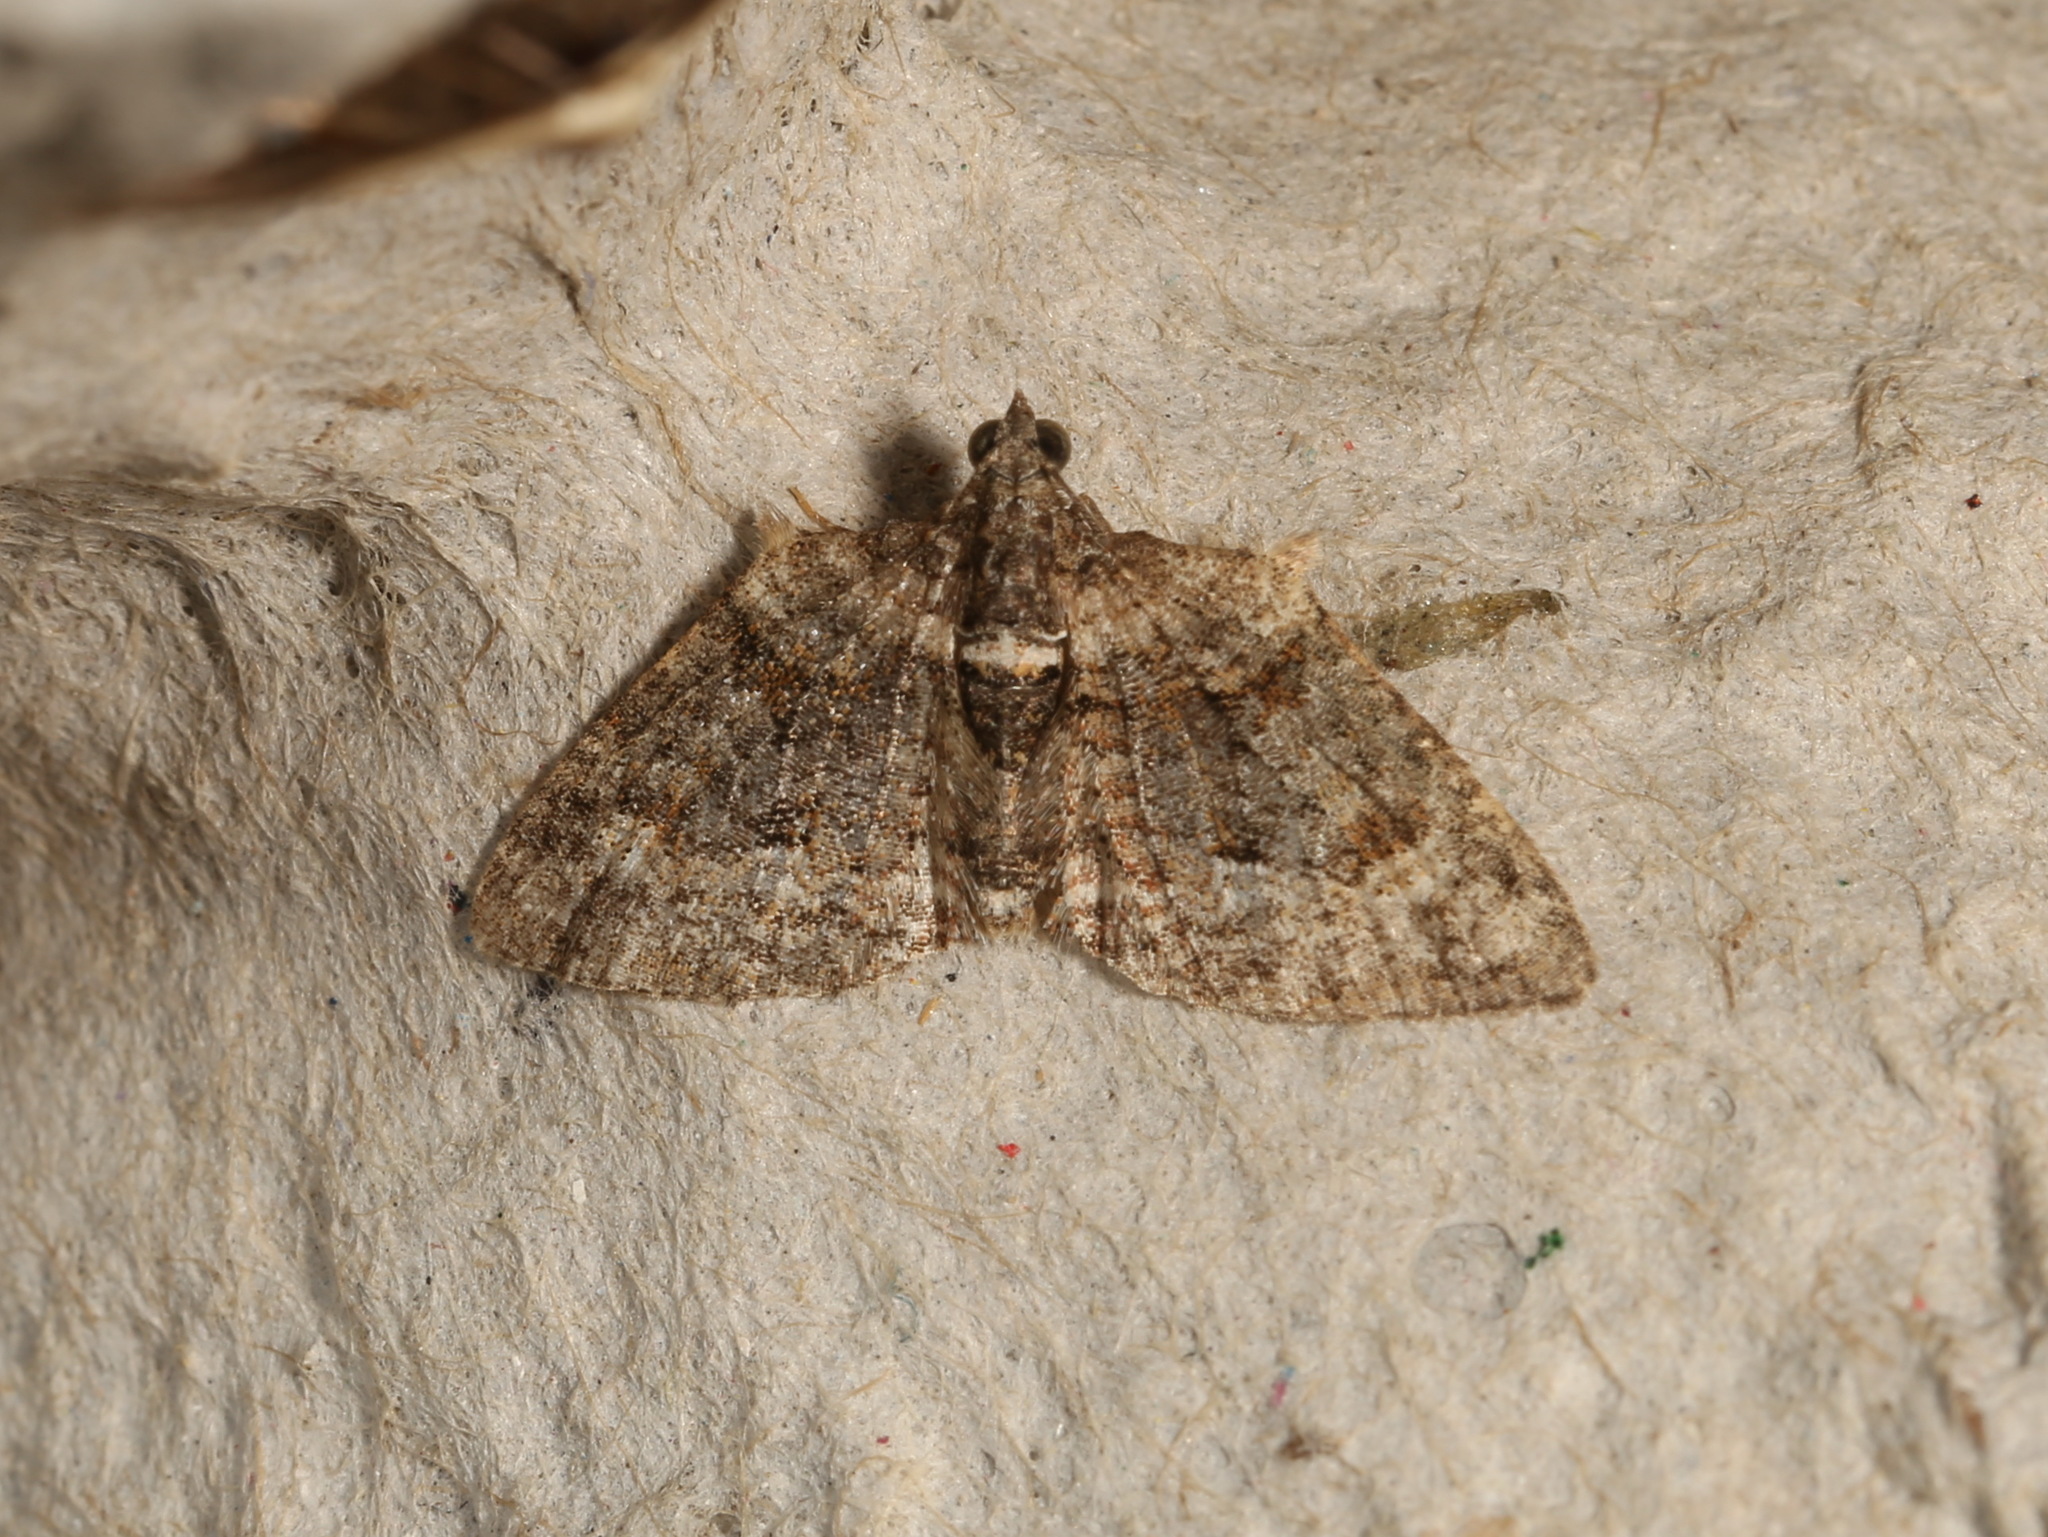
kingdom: Animalia
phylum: Arthropoda
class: Insecta
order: Lepidoptera
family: Geometridae
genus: Phrissogonus
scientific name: Phrissogonus laticostata
